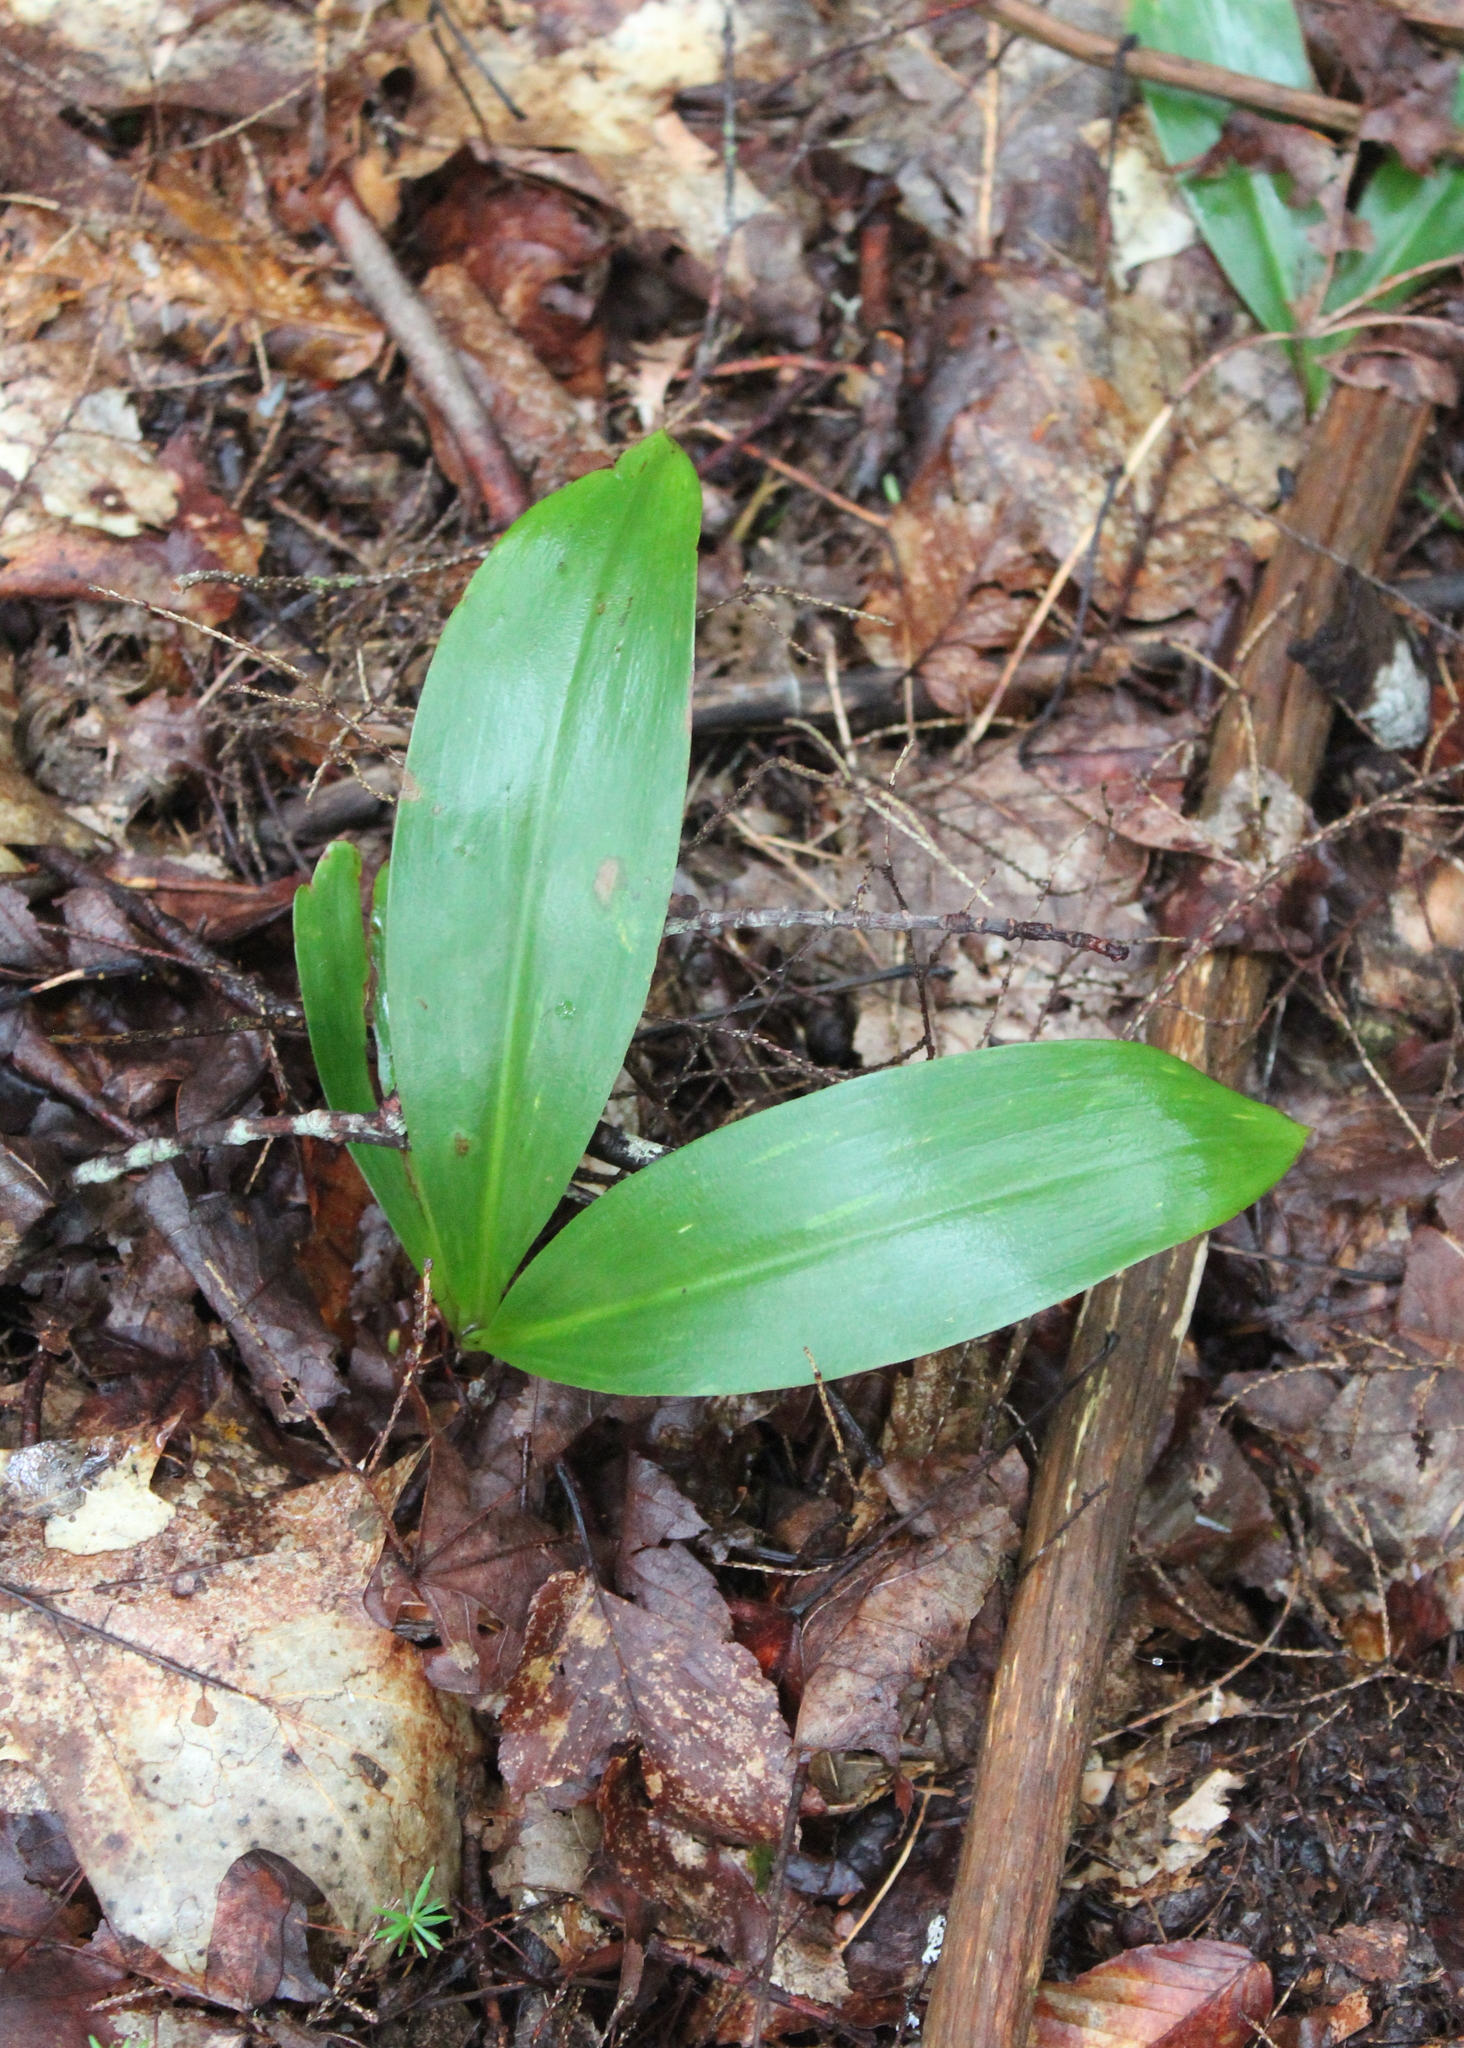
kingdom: Plantae
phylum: Tracheophyta
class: Liliopsida
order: Liliales
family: Liliaceae
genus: Clintonia
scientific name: Clintonia borealis
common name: Yellow clintonia
